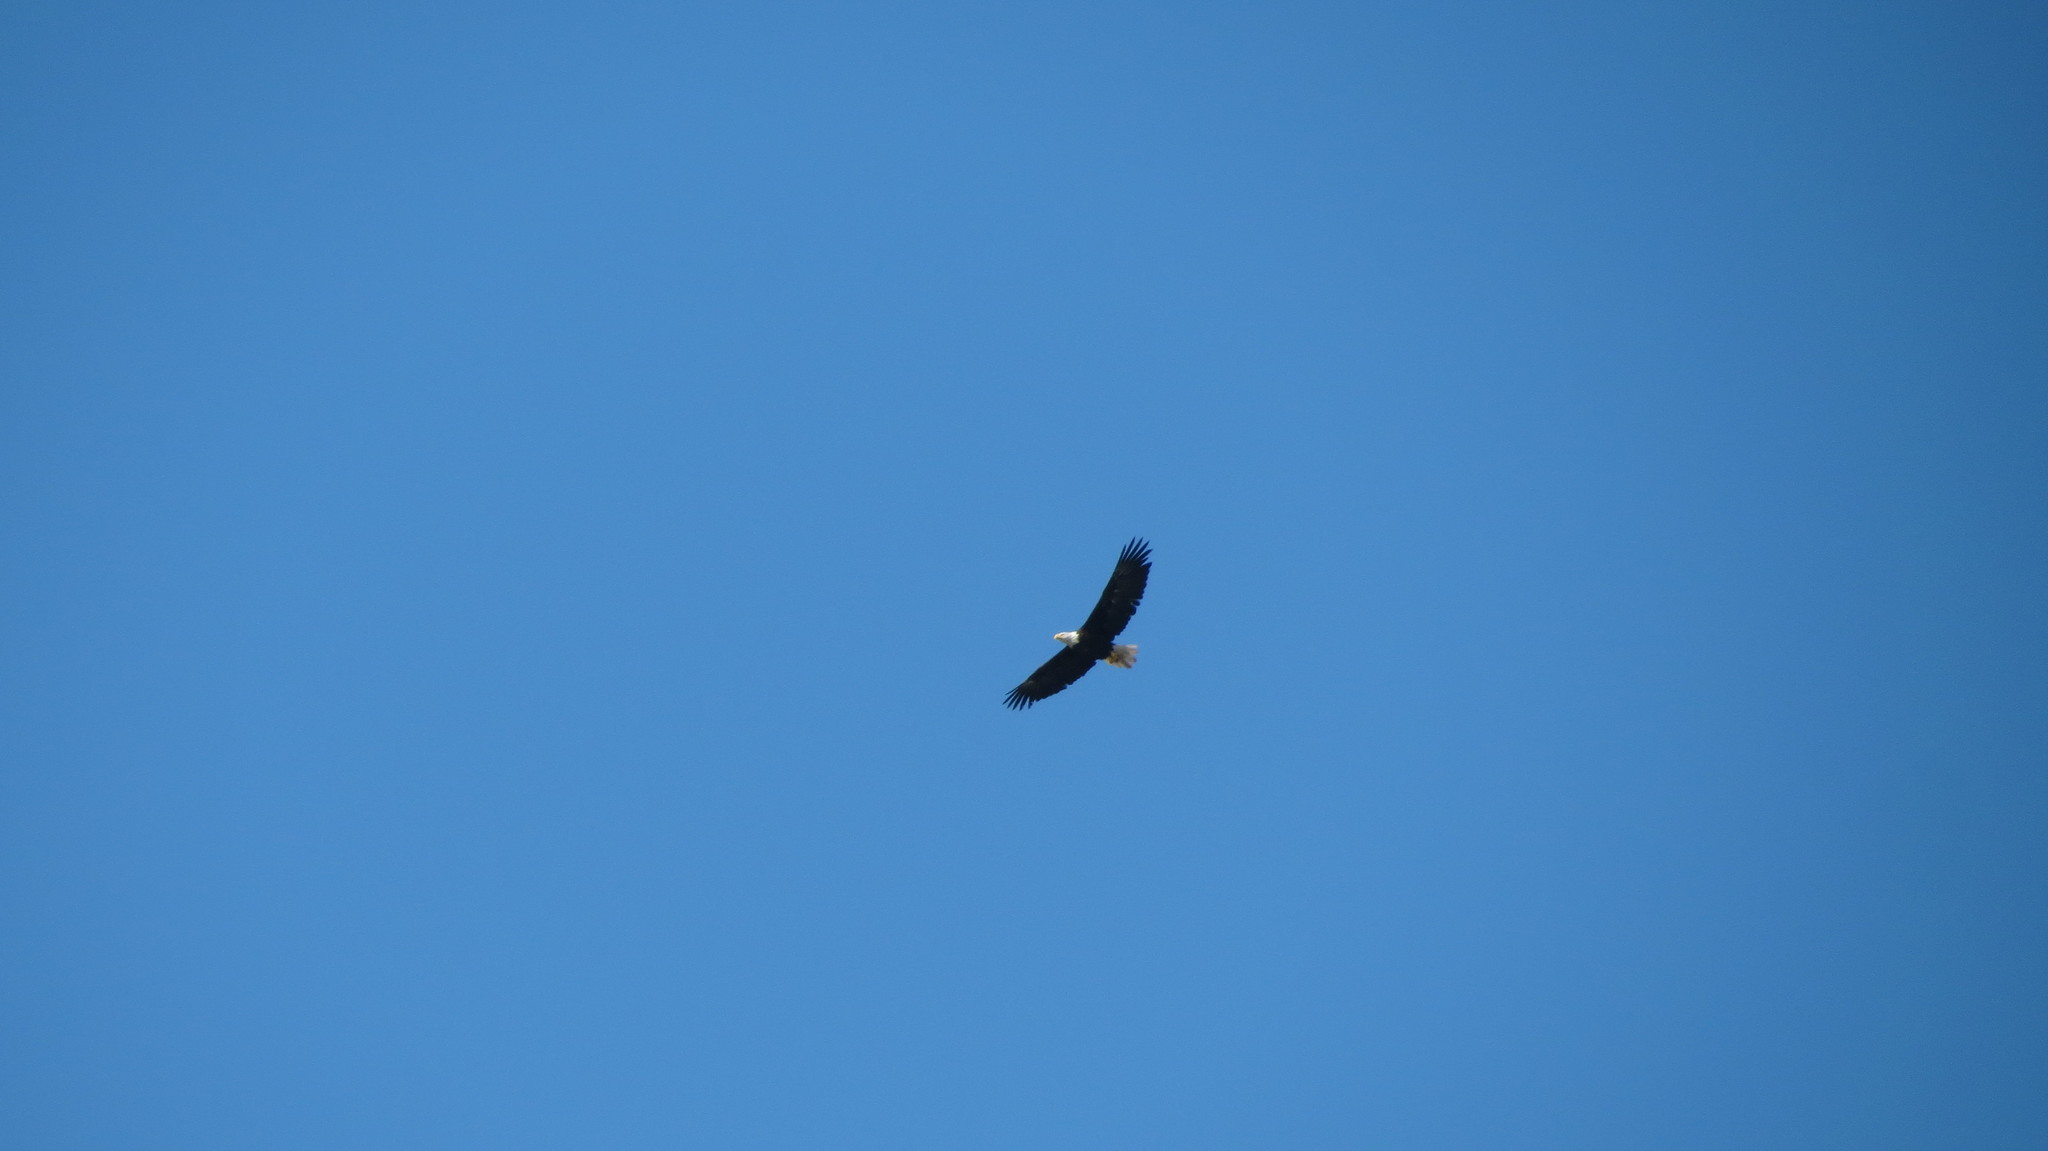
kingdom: Animalia
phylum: Chordata
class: Aves
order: Accipitriformes
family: Accipitridae
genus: Haliaeetus
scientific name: Haliaeetus leucocephalus
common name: Bald eagle
